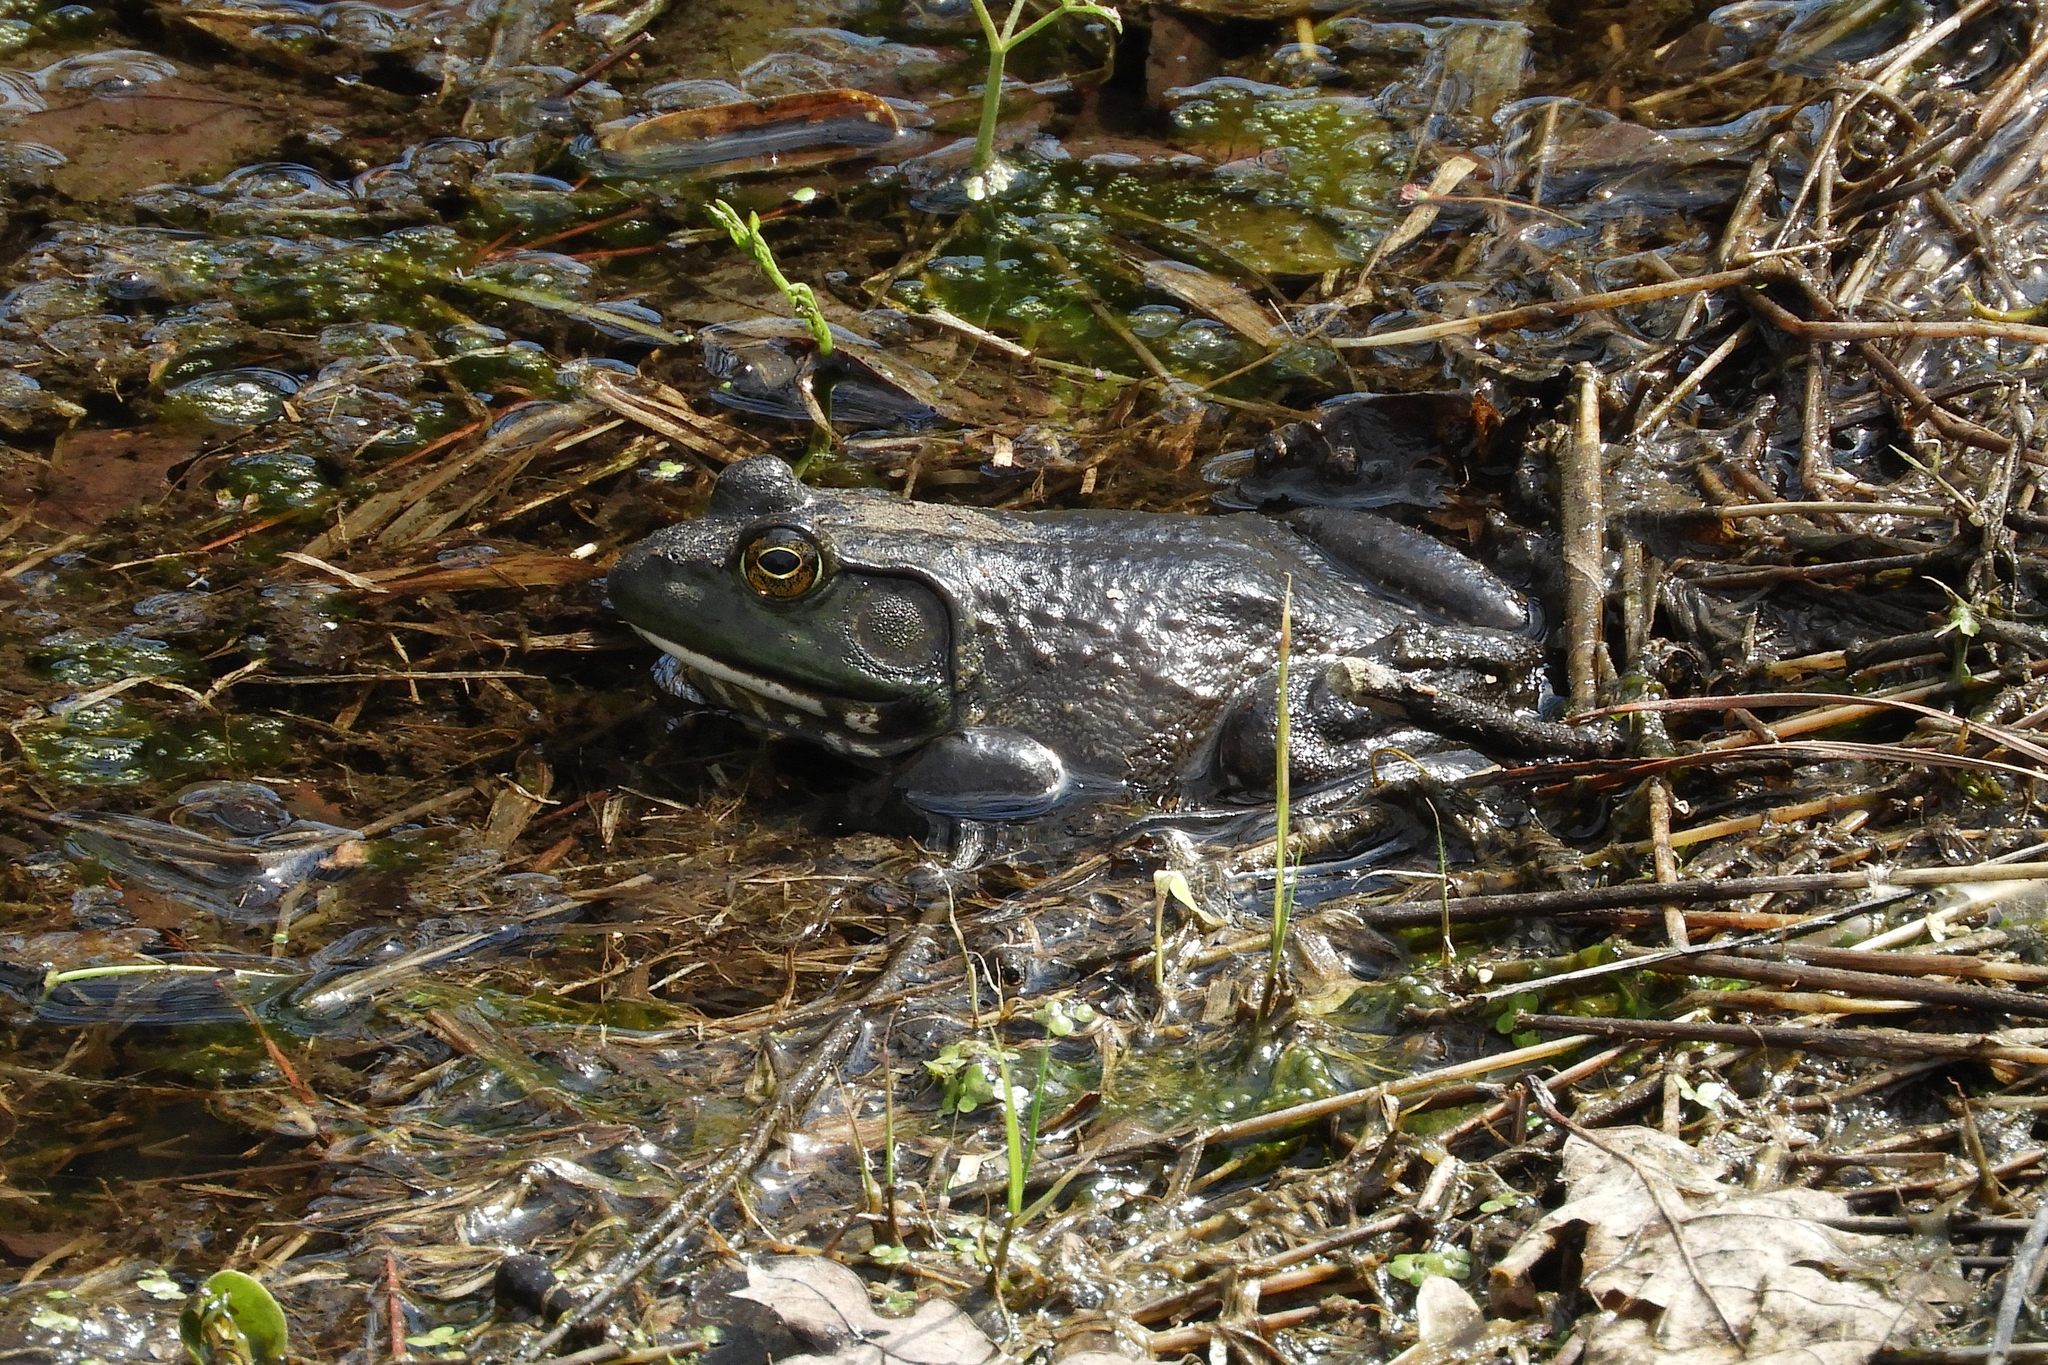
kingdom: Animalia
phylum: Chordata
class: Amphibia
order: Anura
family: Ranidae
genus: Lithobates
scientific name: Lithobates catesbeianus
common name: American bullfrog
